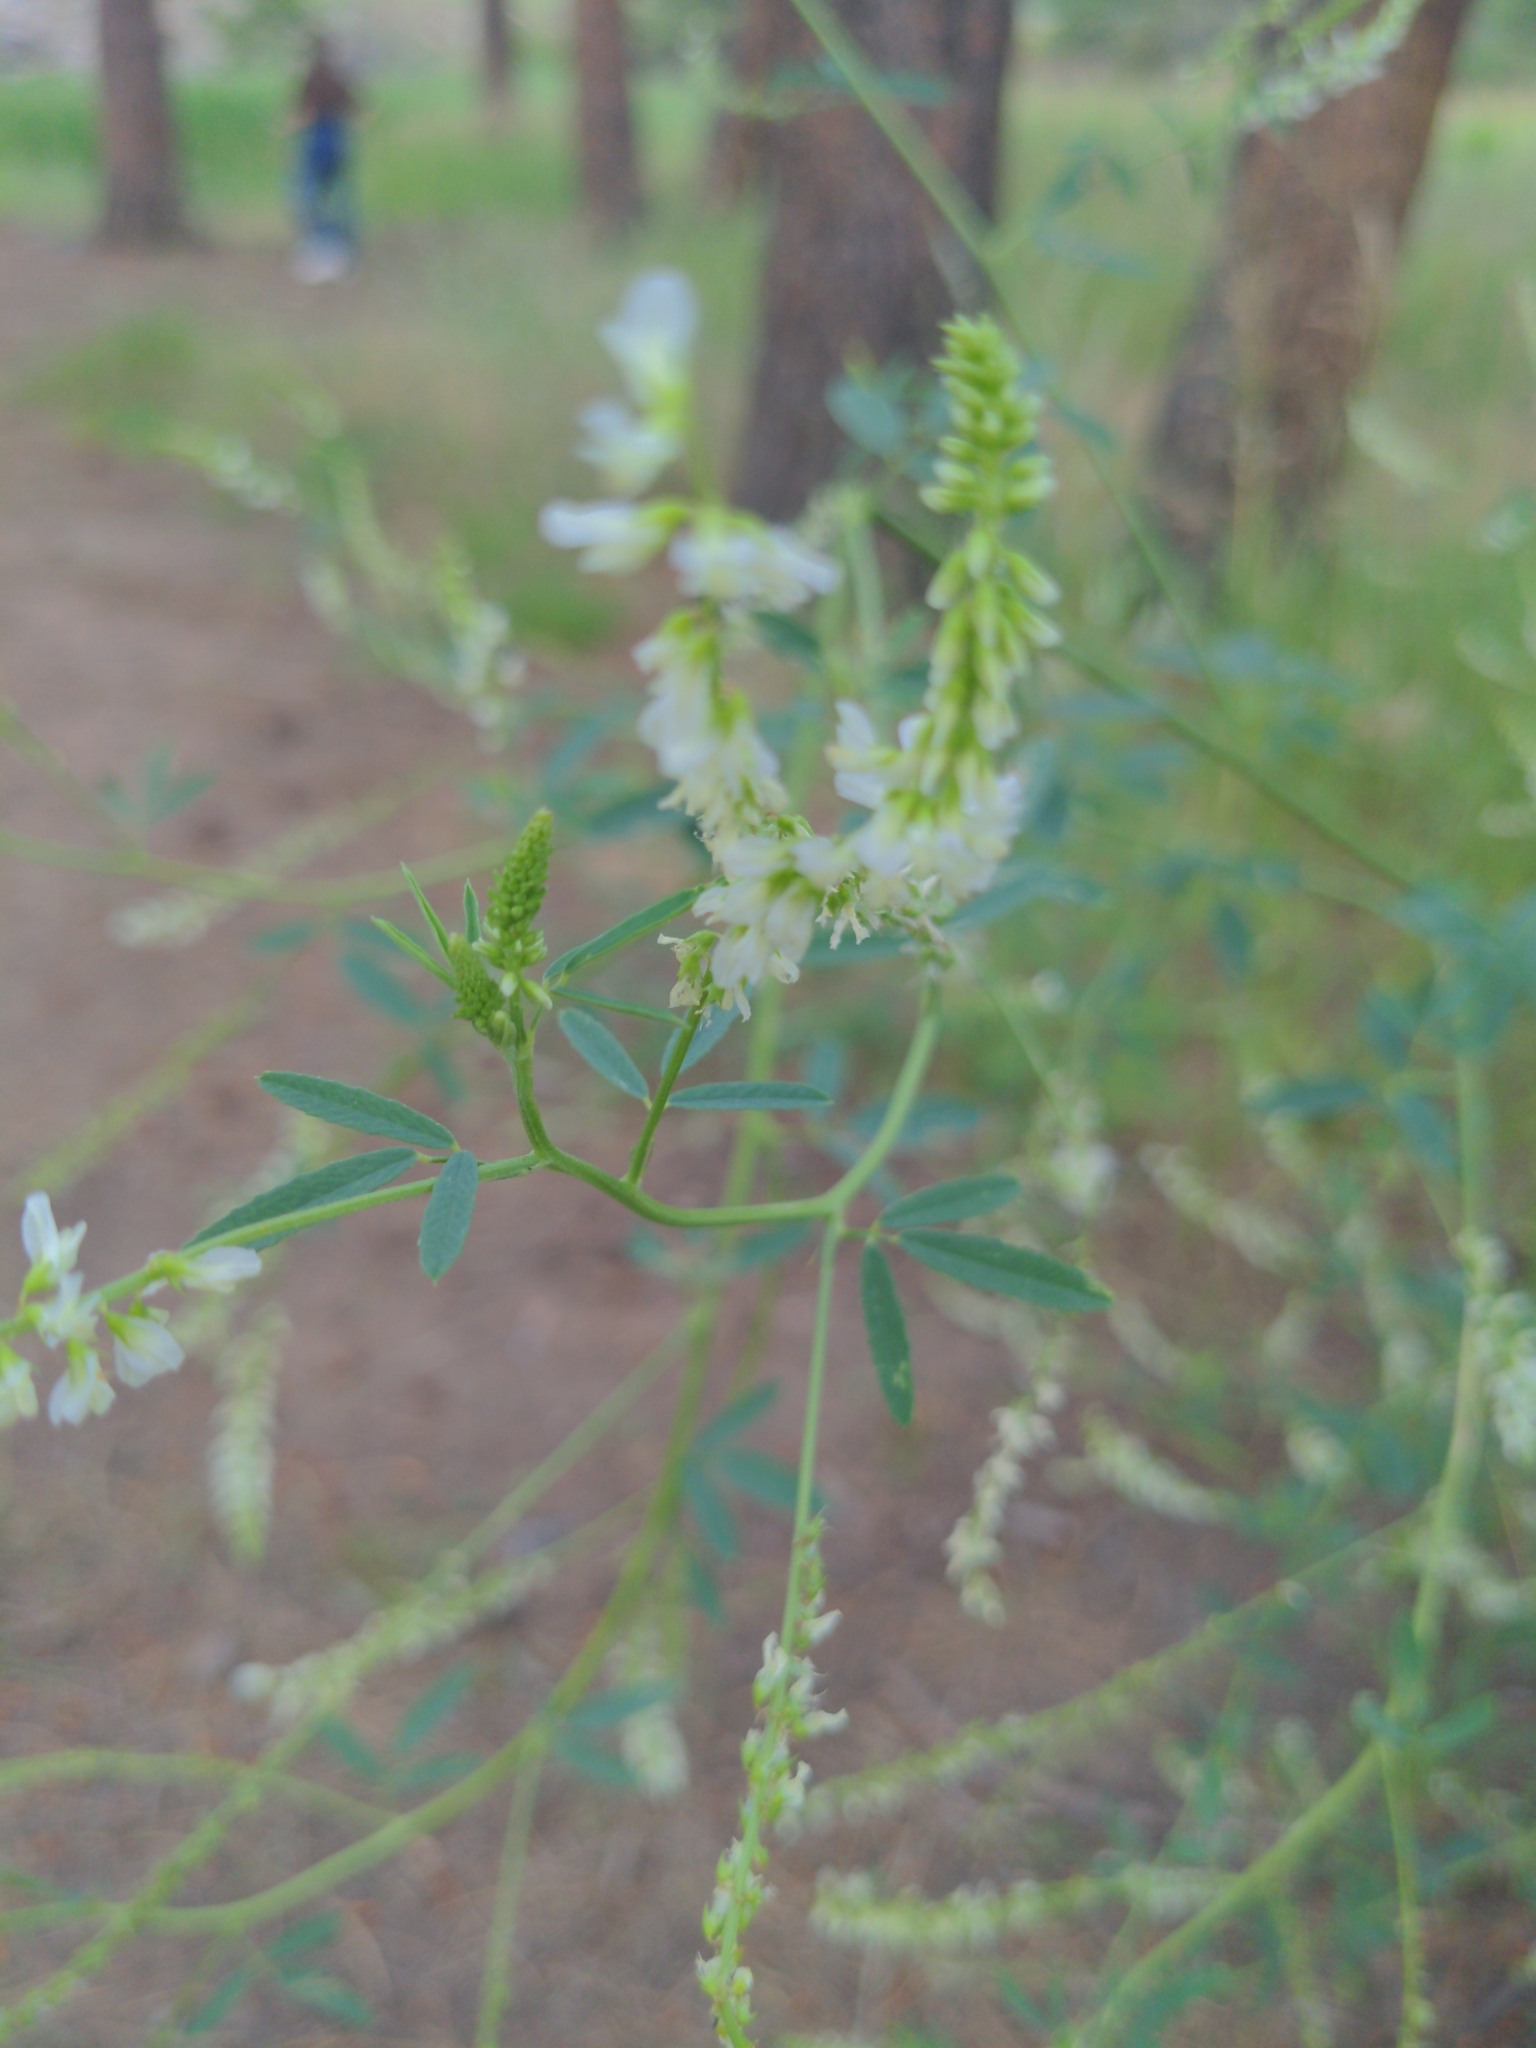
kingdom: Plantae
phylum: Tracheophyta
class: Magnoliopsida
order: Fabales
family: Fabaceae
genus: Melilotus
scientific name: Melilotus albus
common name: White melilot
